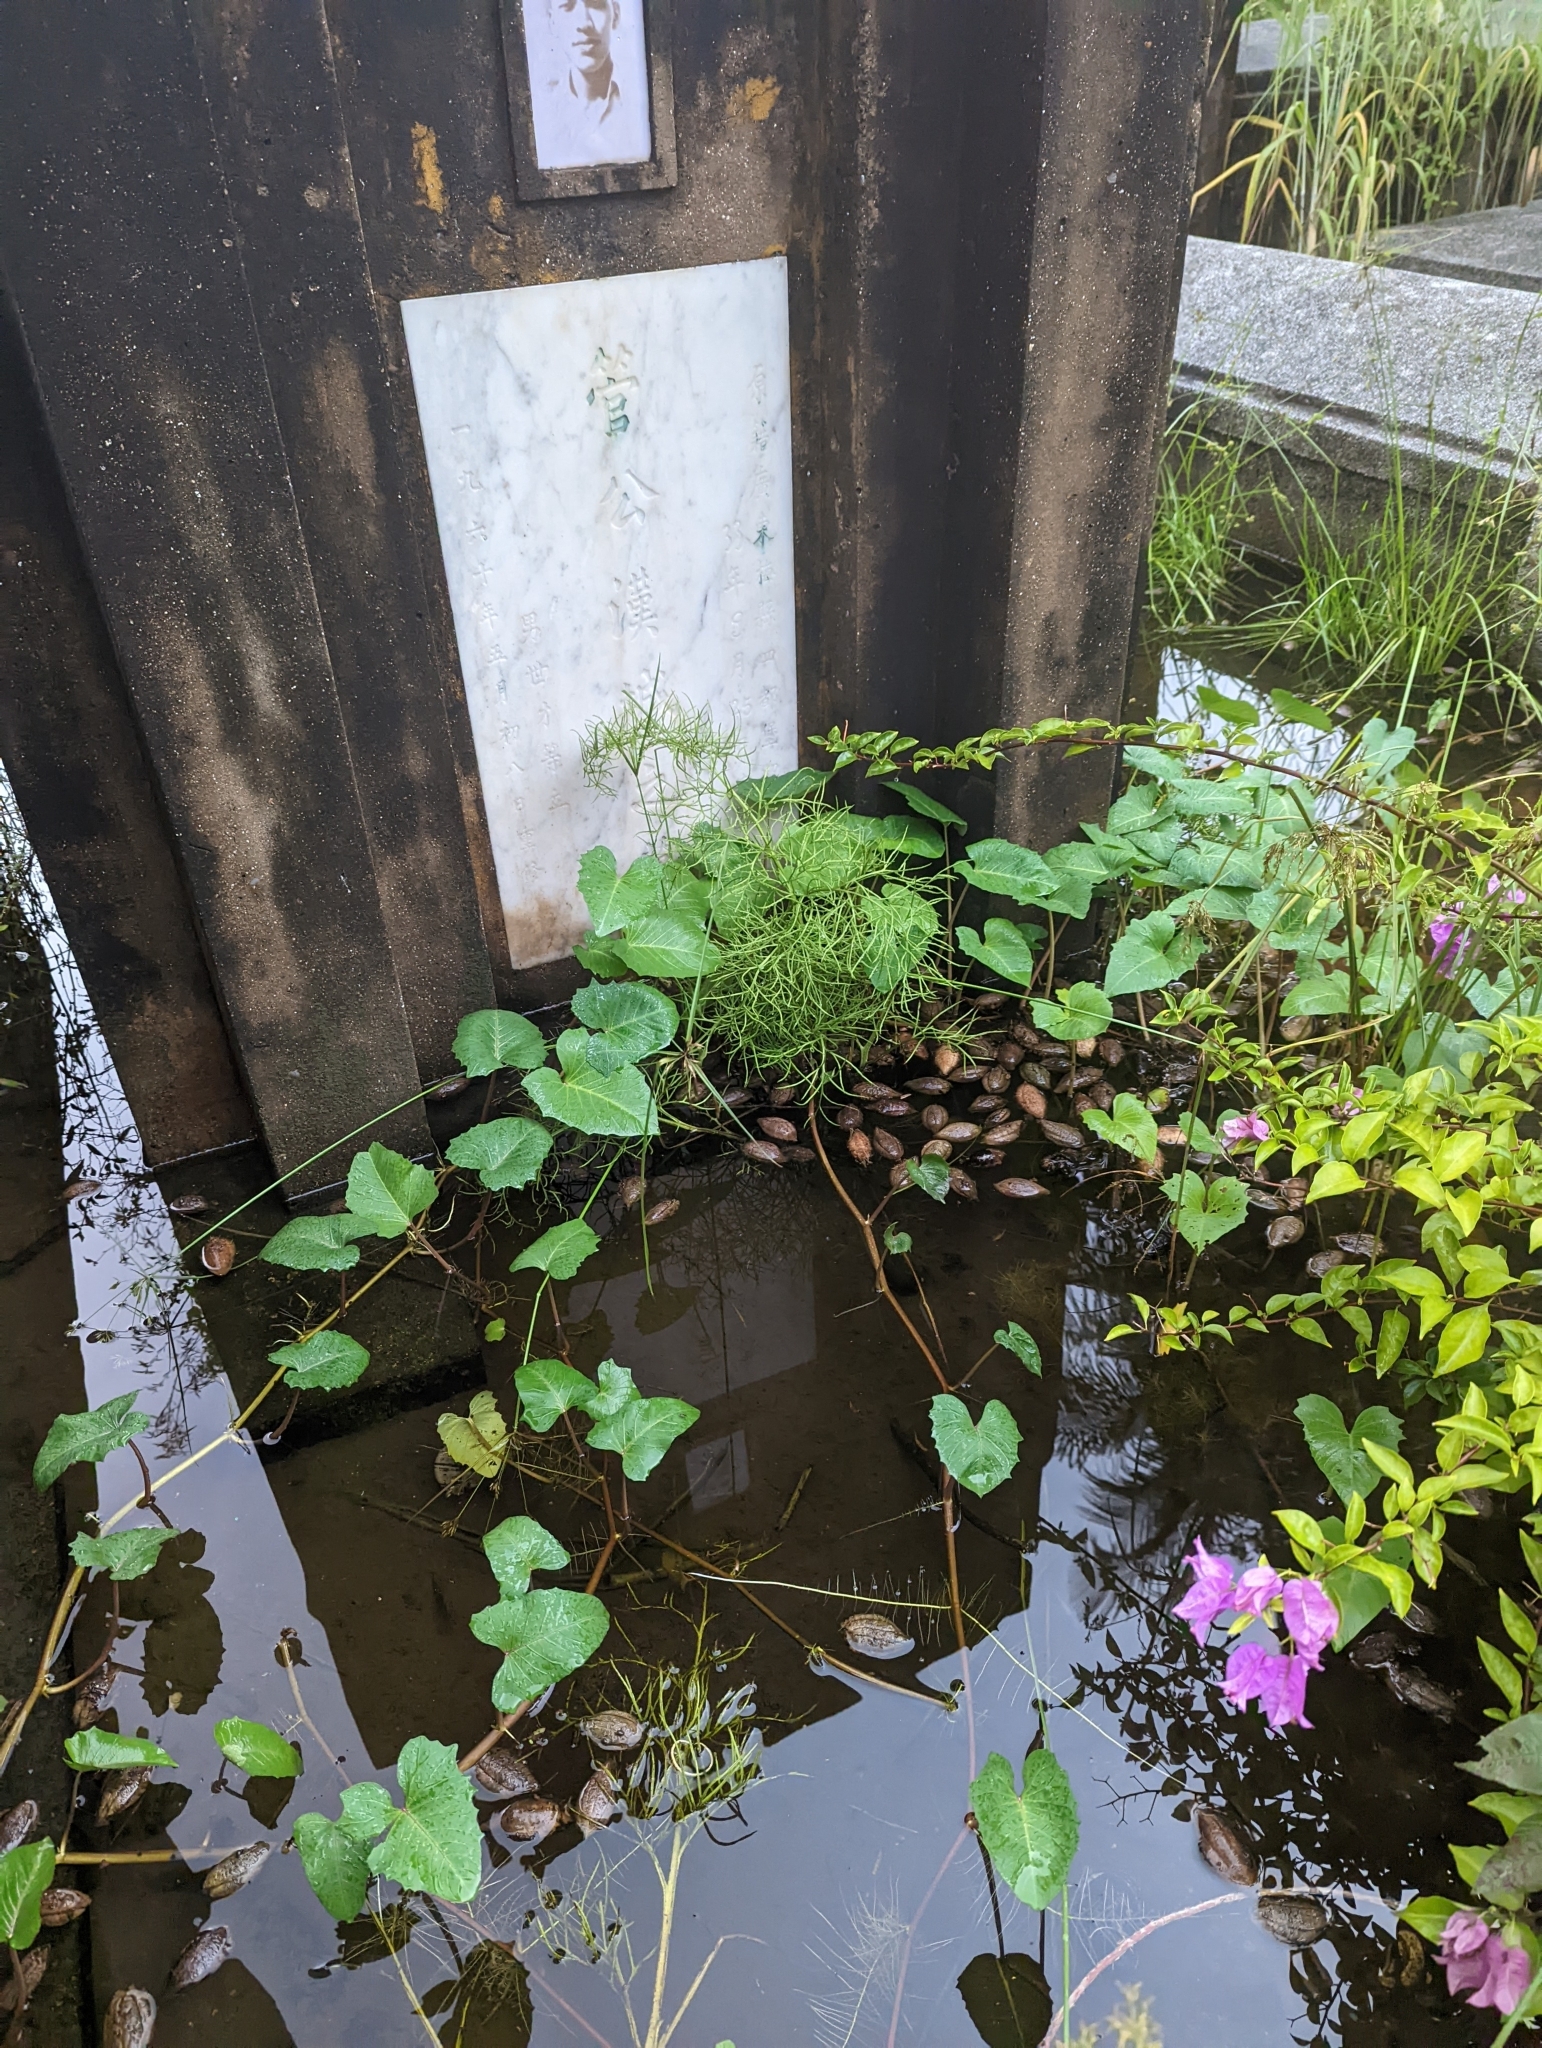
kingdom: Plantae
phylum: Tracheophyta
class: Polypodiopsida
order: Polypodiales
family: Pteridaceae
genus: Ceratopteris
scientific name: Ceratopteris thalictroides
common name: Water fern
